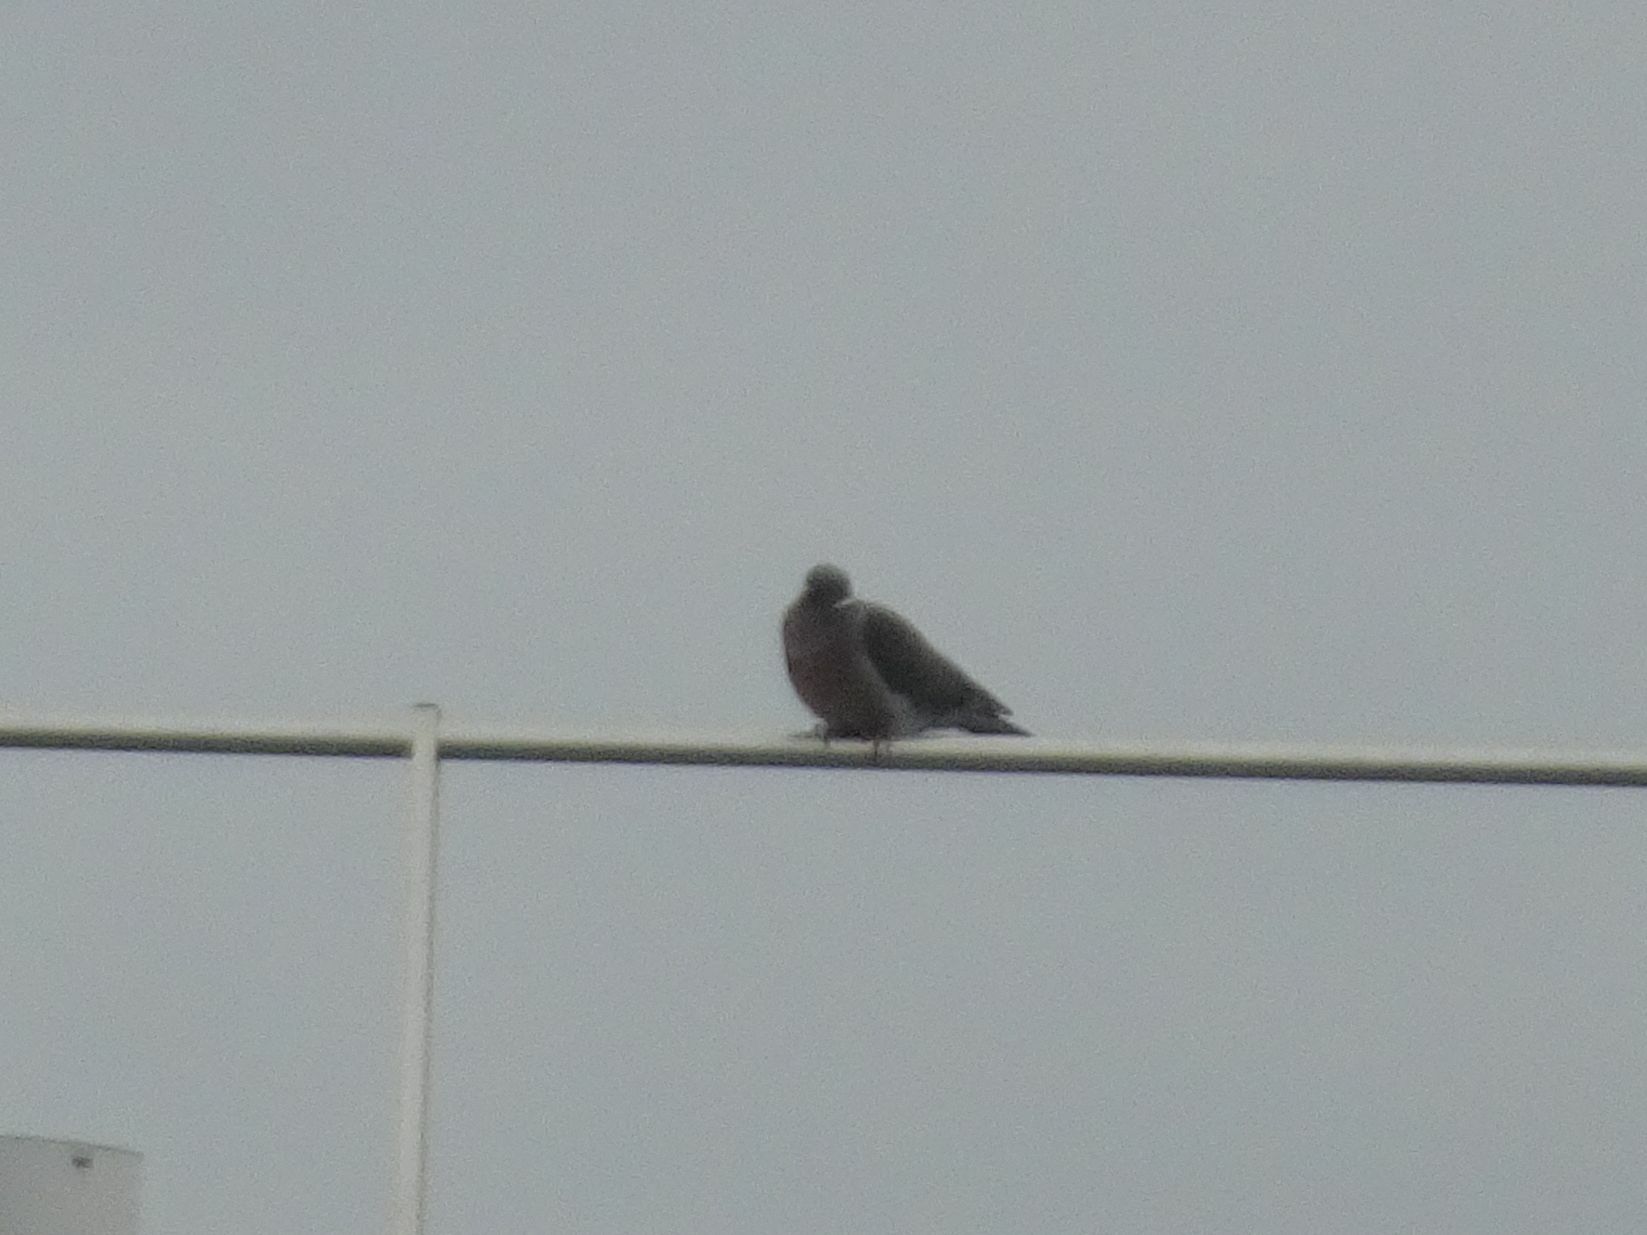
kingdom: Animalia
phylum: Chordata
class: Aves
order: Columbiformes
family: Columbidae
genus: Columba
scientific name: Columba palumbus
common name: Common wood pigeon
